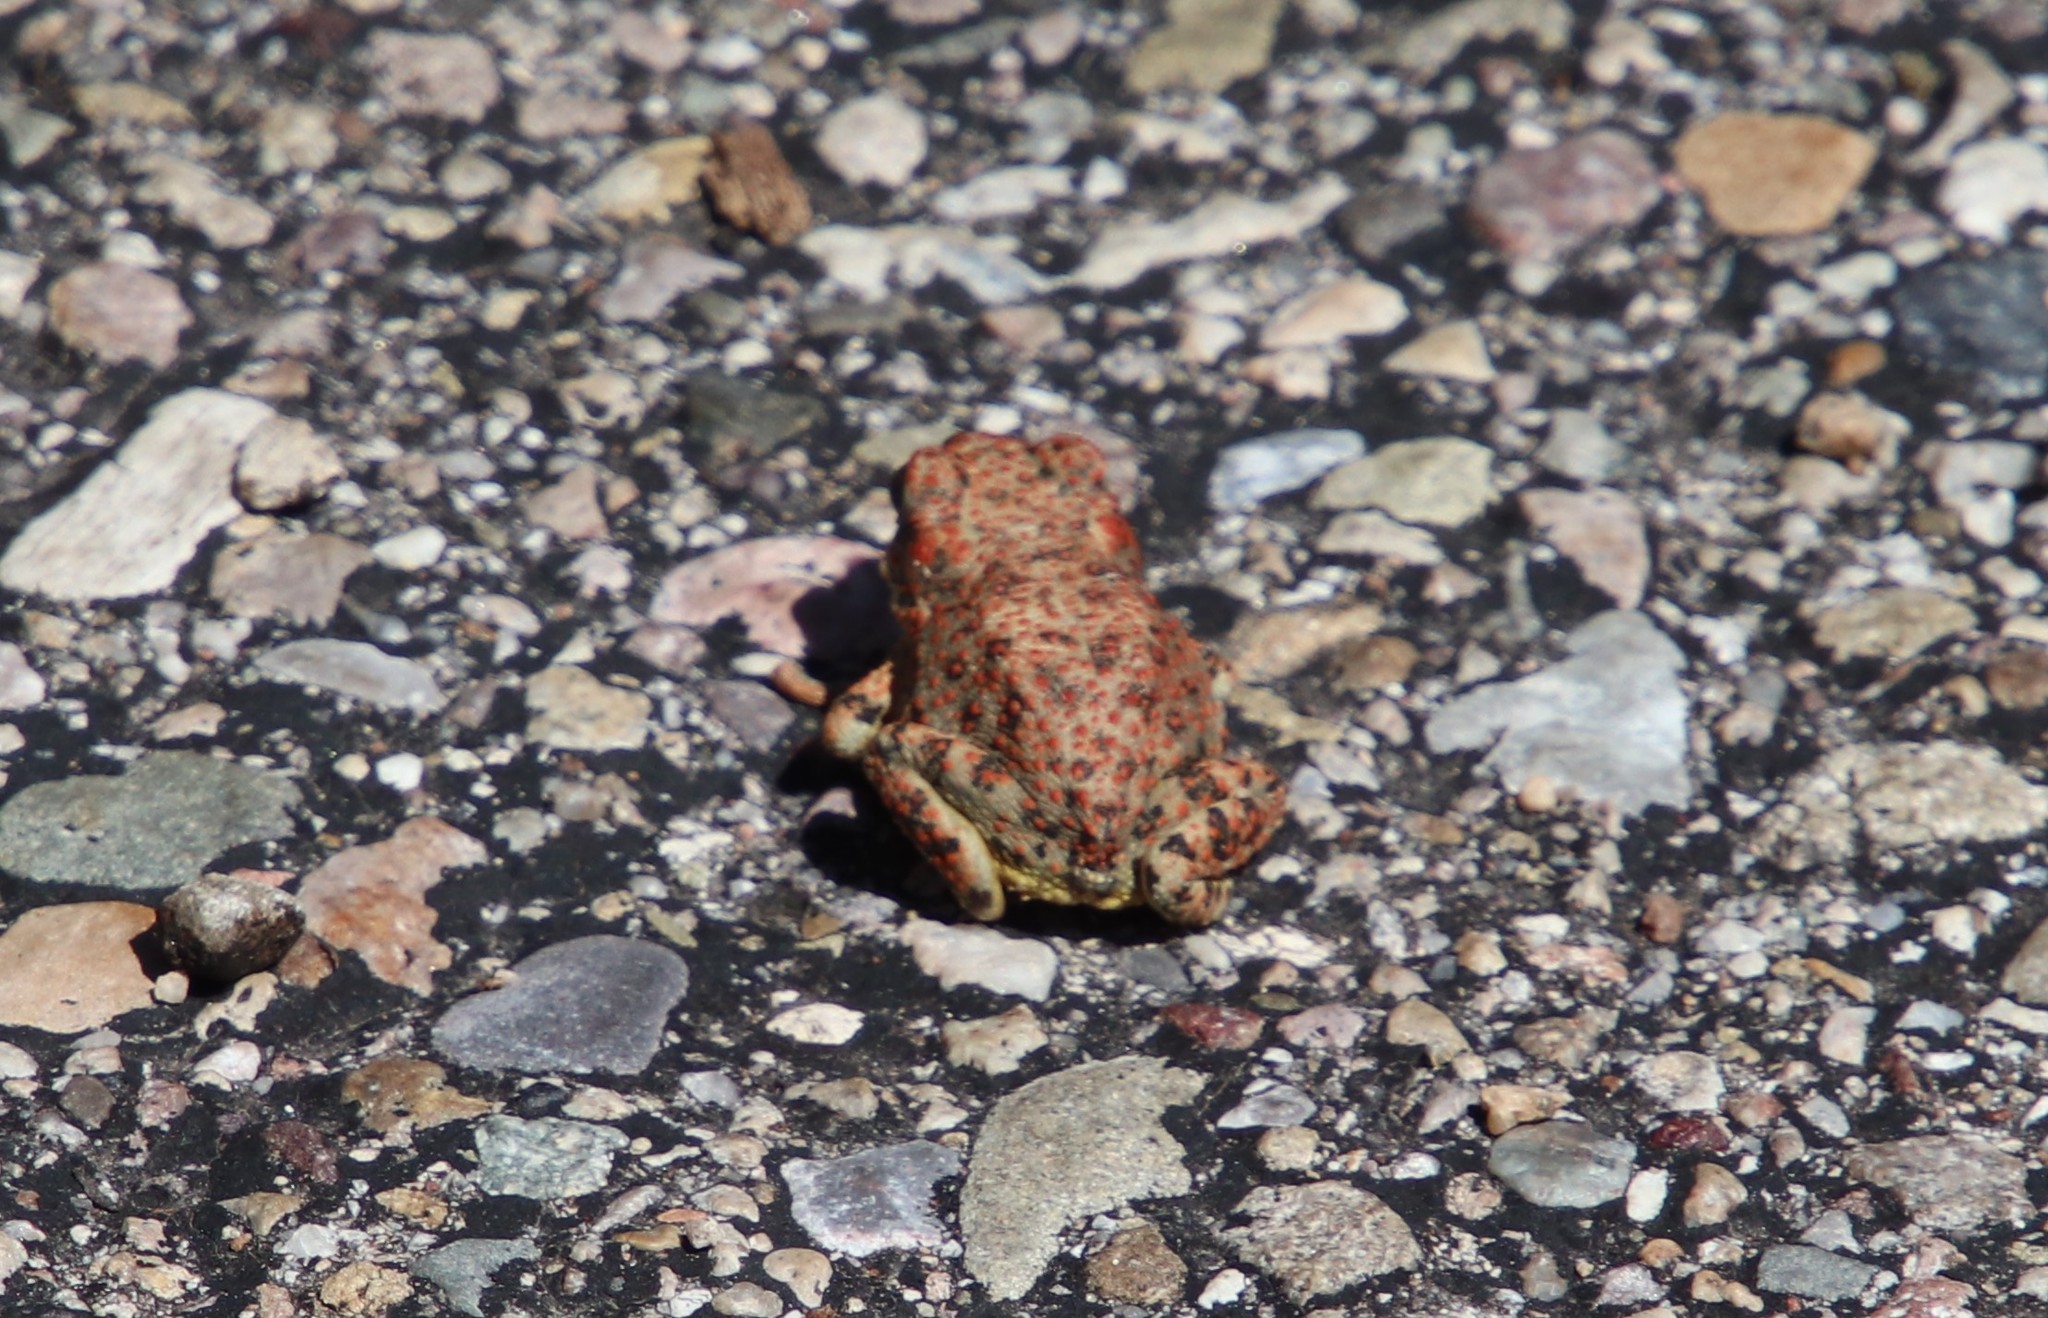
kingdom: Animalia
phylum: Chordata
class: Amphibia
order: Anura
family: Bufonidae
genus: Anaxyrus
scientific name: Anaxyrus punctatus
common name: Red-spotted toad
